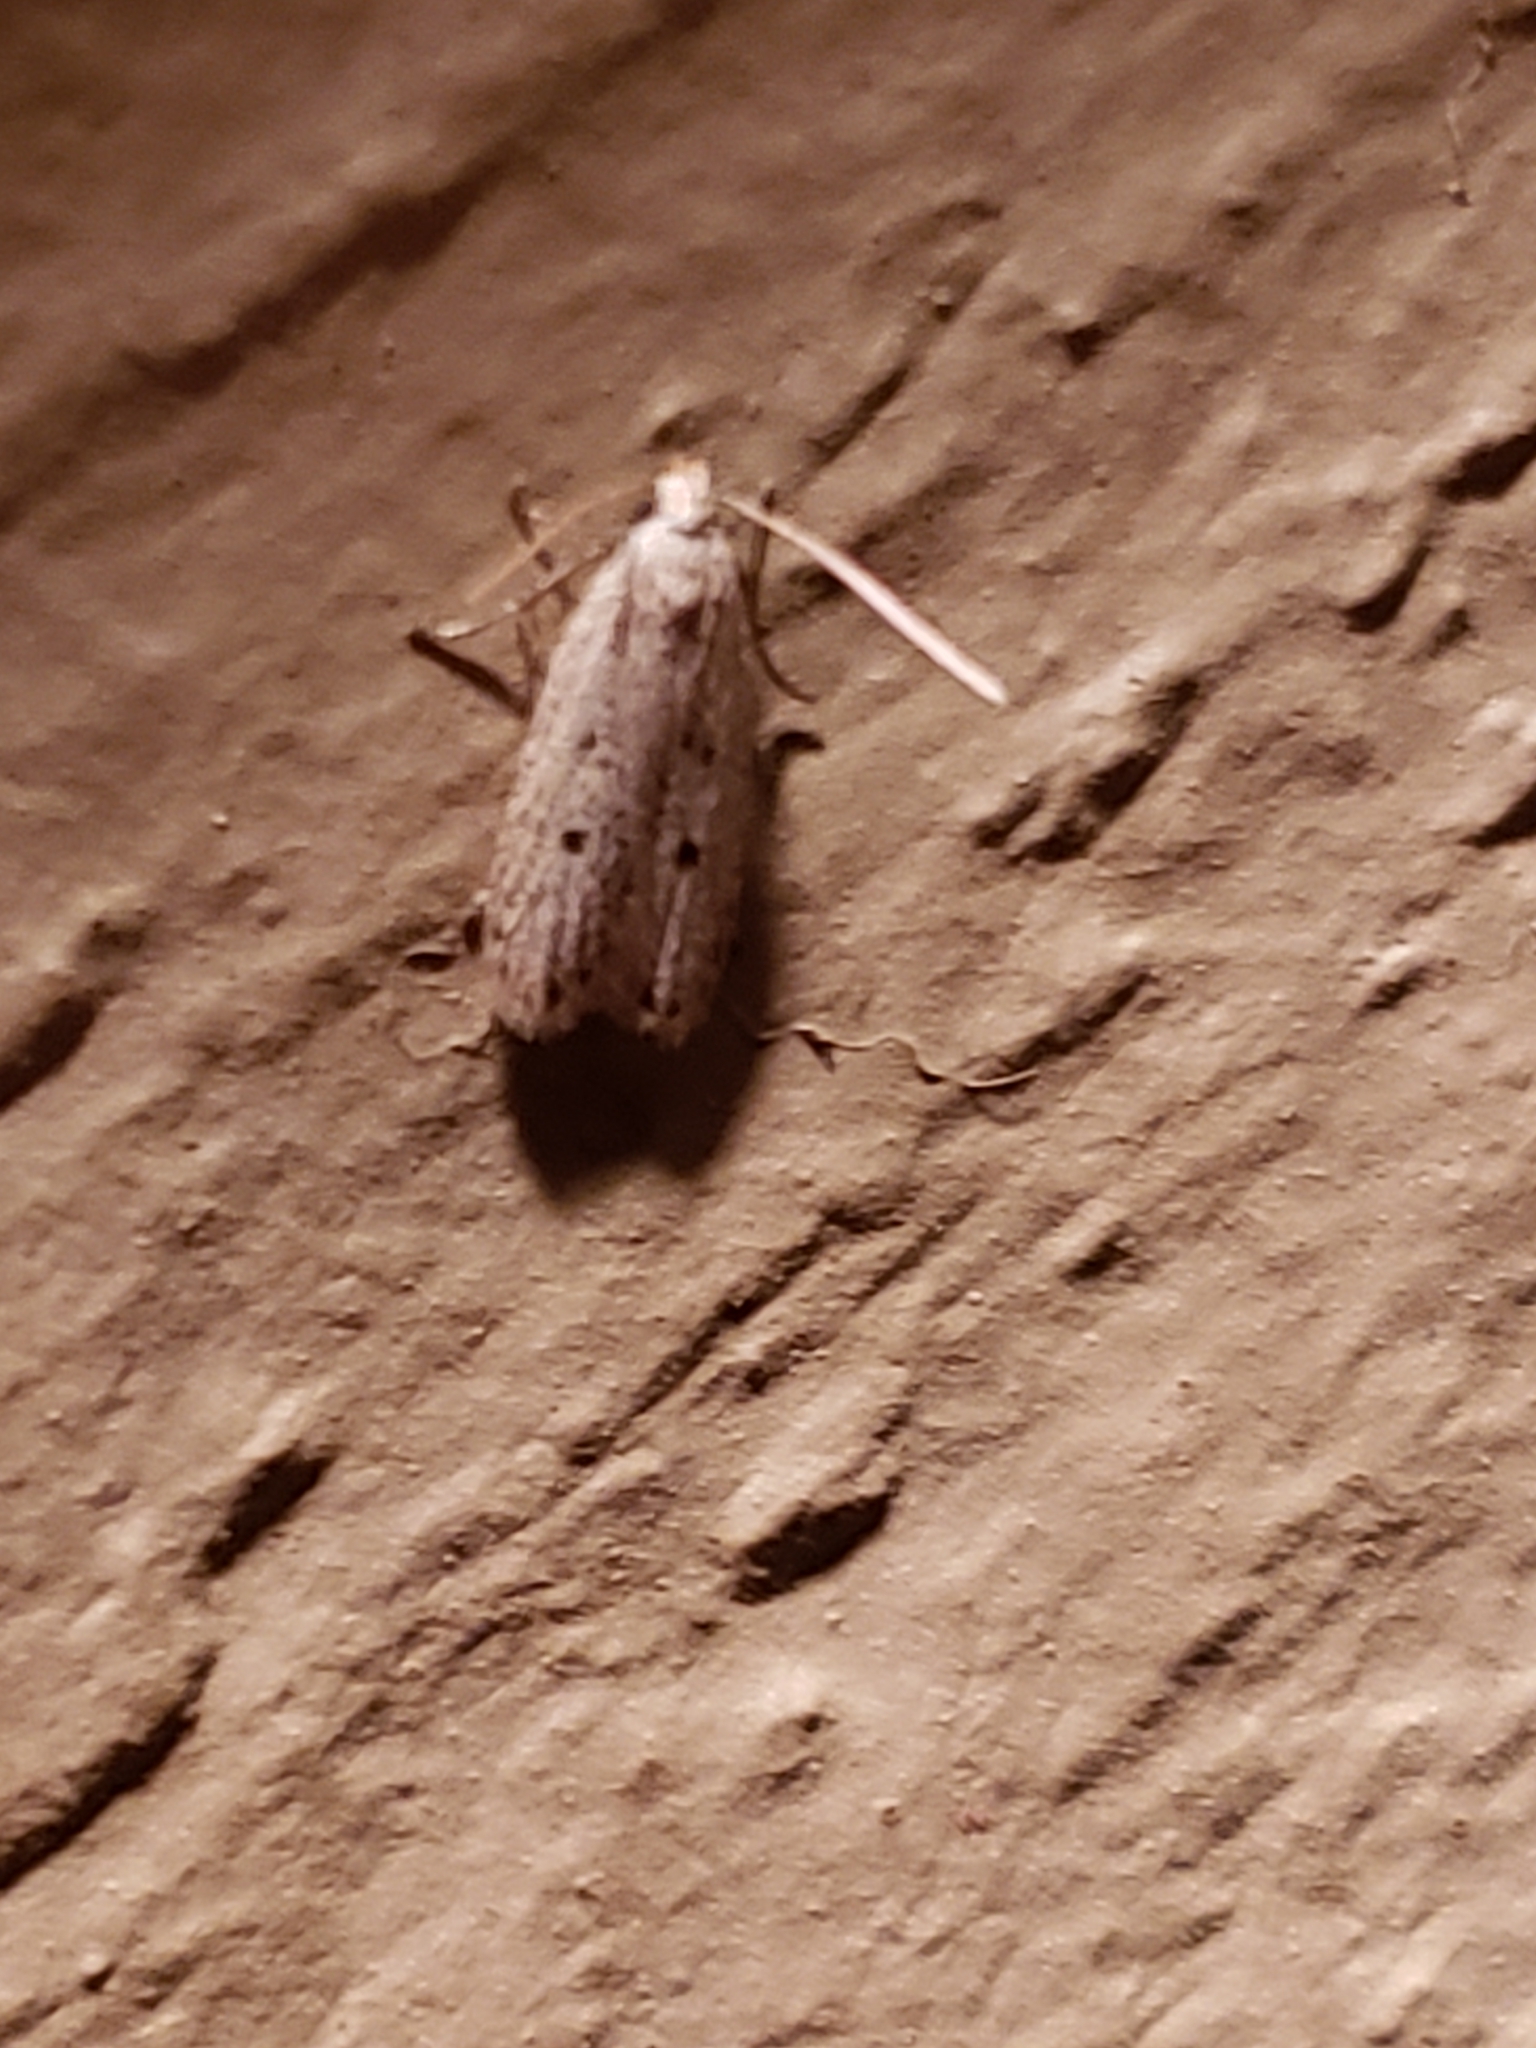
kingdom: Animalia
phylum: Arthropoda
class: Insecta
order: Lepidoptera
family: Peleopodidae
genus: Scythropiodes
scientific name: Scythropiodes issikii
